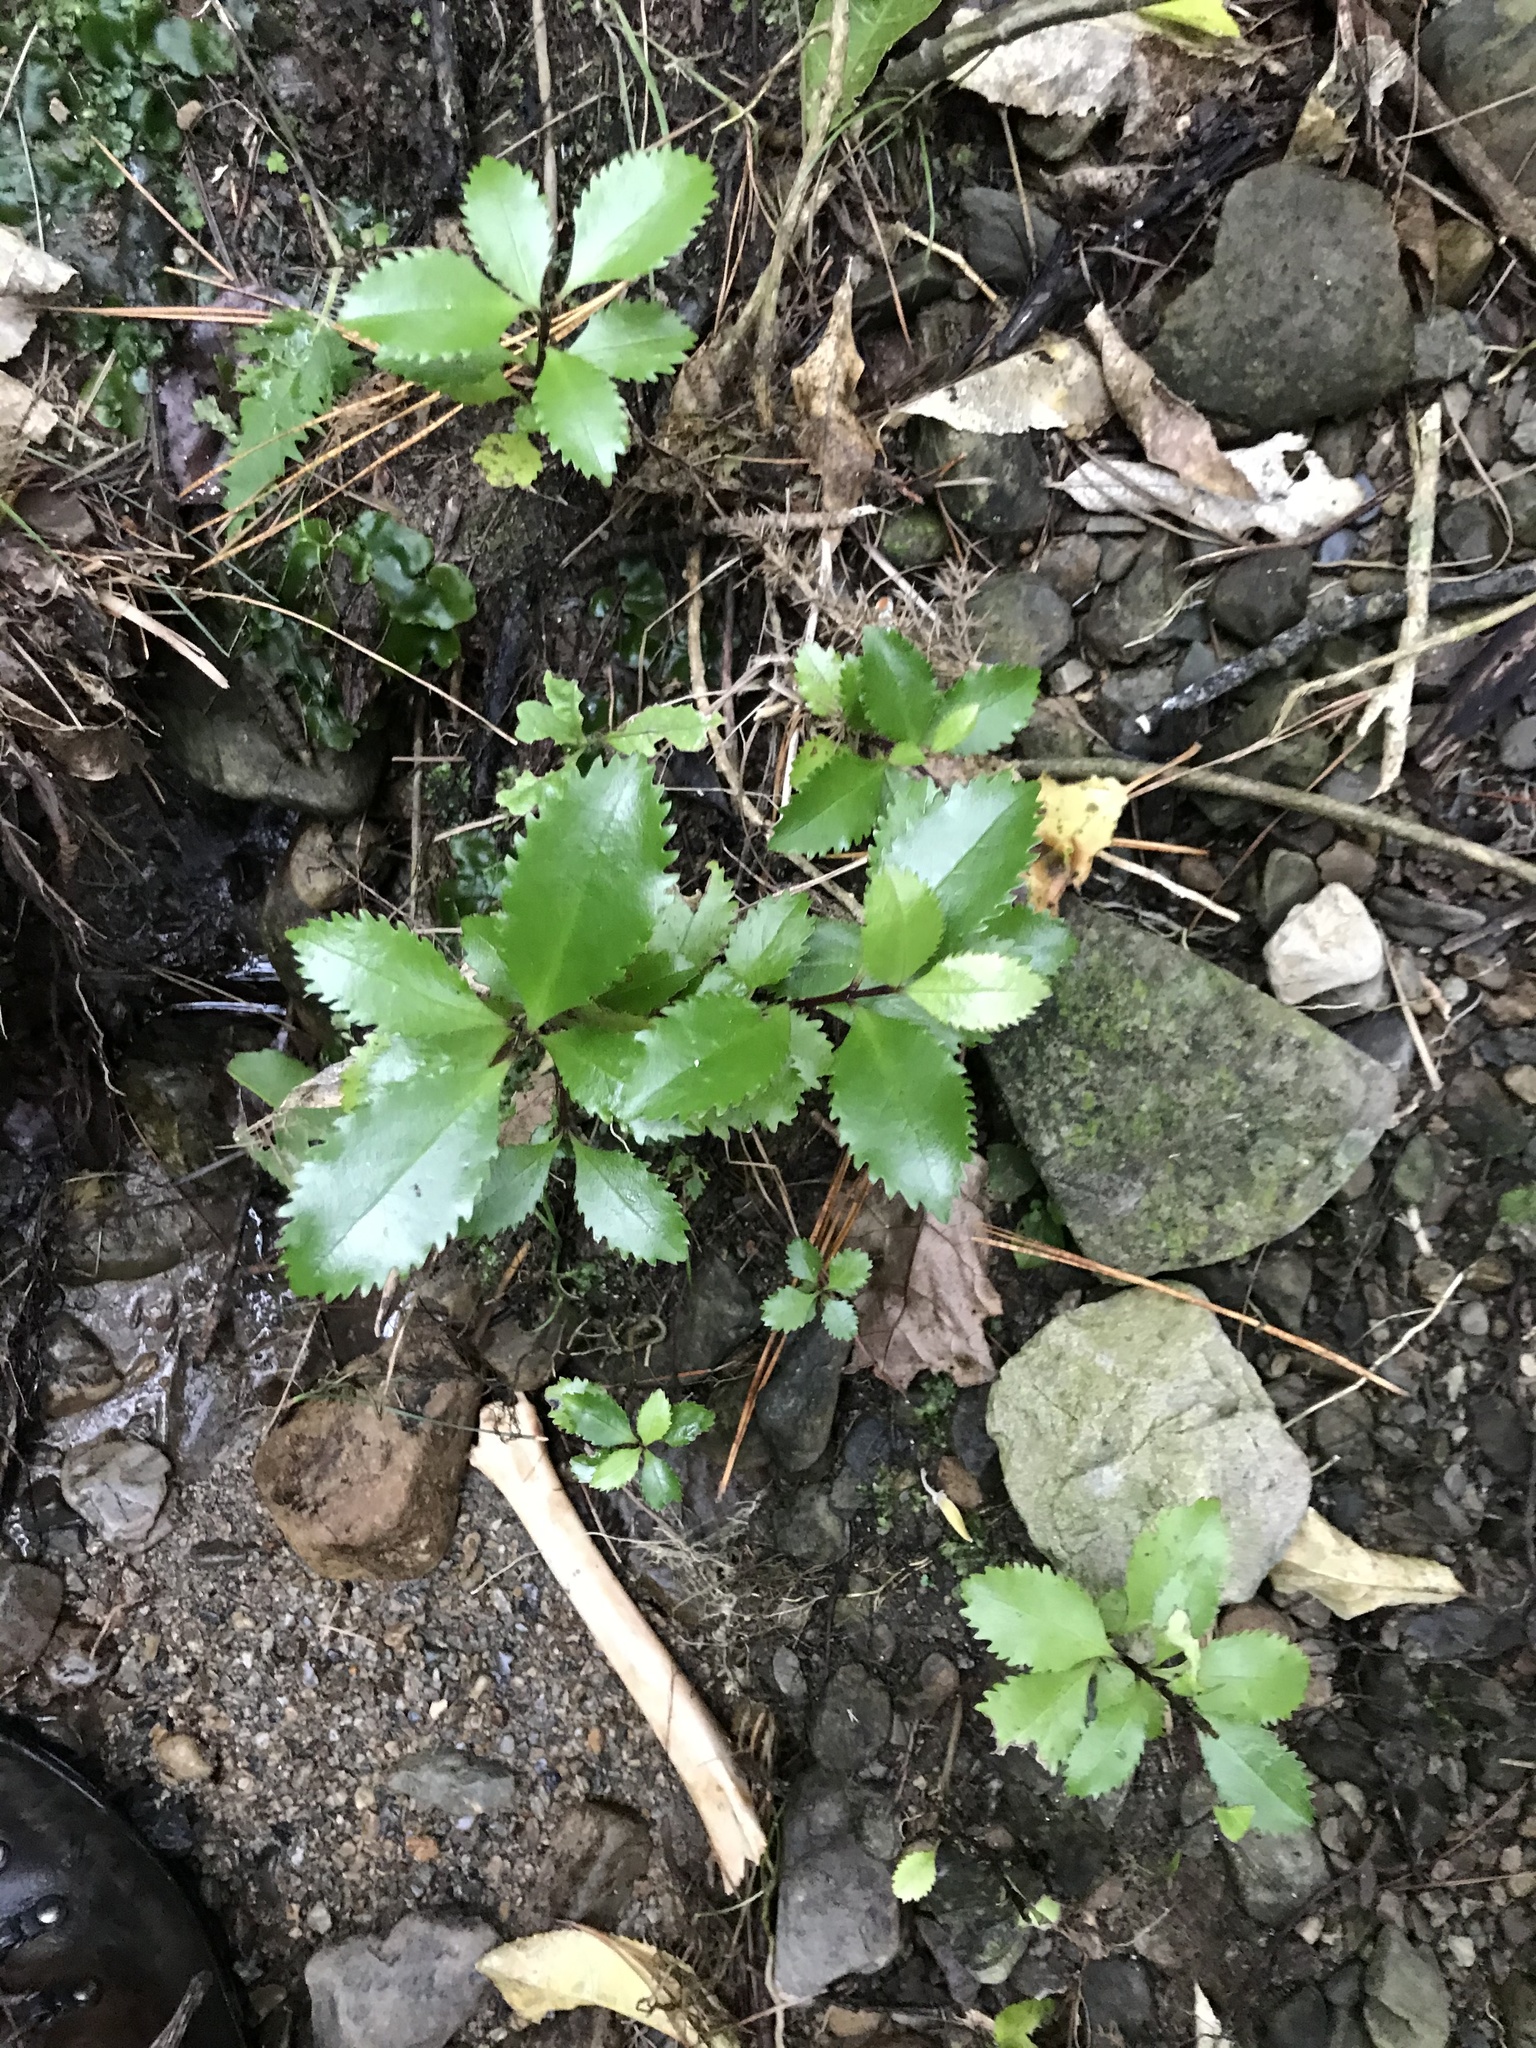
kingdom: Plantae
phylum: Tracheophyta
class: Magnoliopsida
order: Laurales
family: Atherospermataceae
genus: Laurelia
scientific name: Laurelia novae-zelandiae
